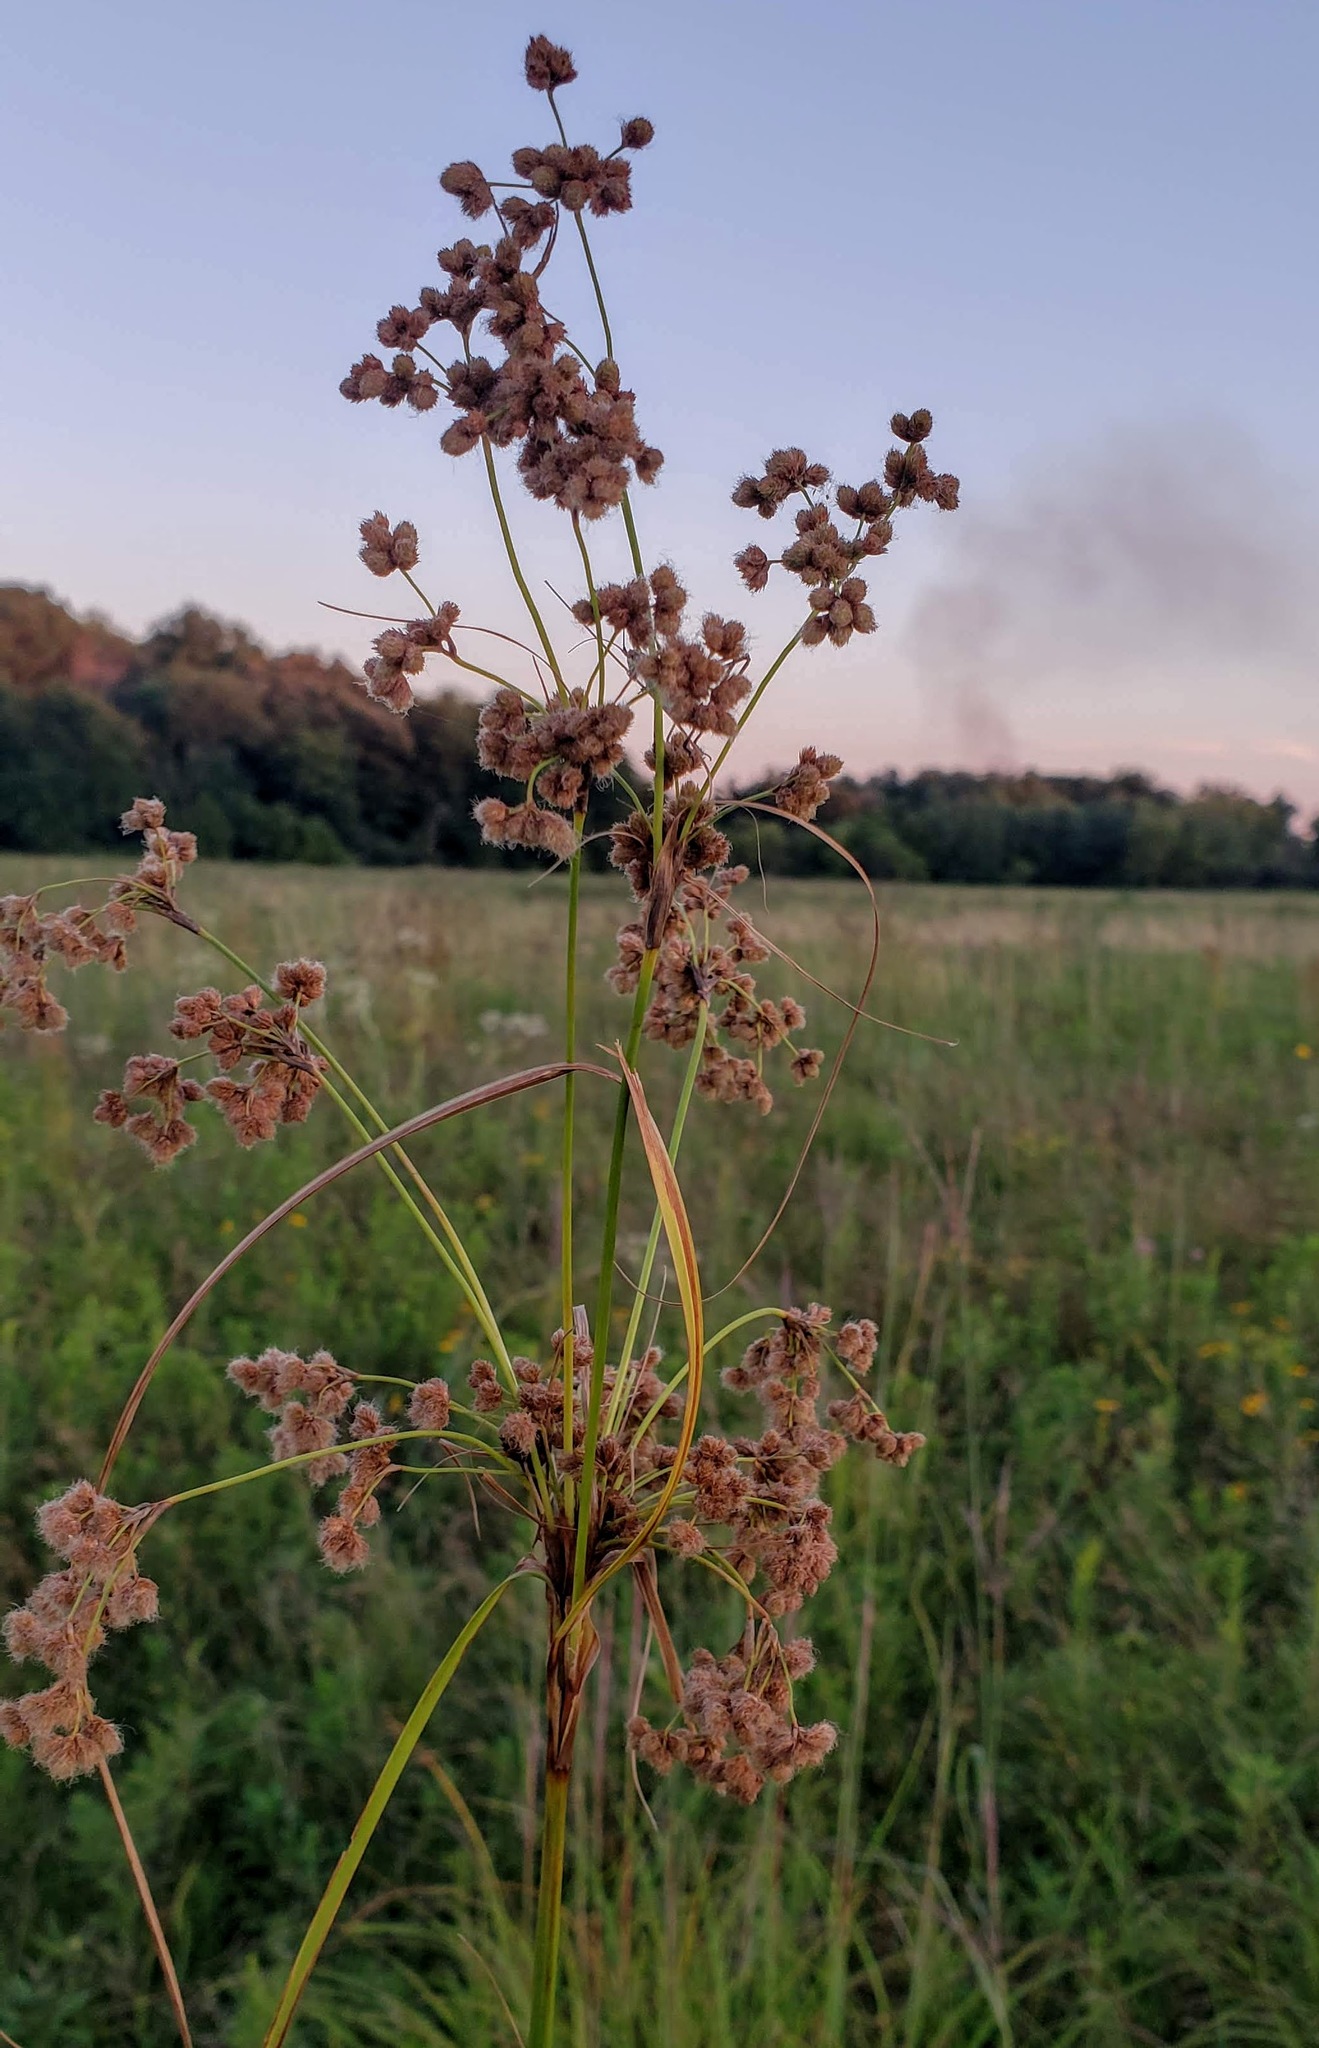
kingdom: Plantae
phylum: Tracheophyta
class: Liliopsida
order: Poales
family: Cyperaceae
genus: Scirpus
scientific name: Scirpus cyperinus
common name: Black-sheathed bulrush
